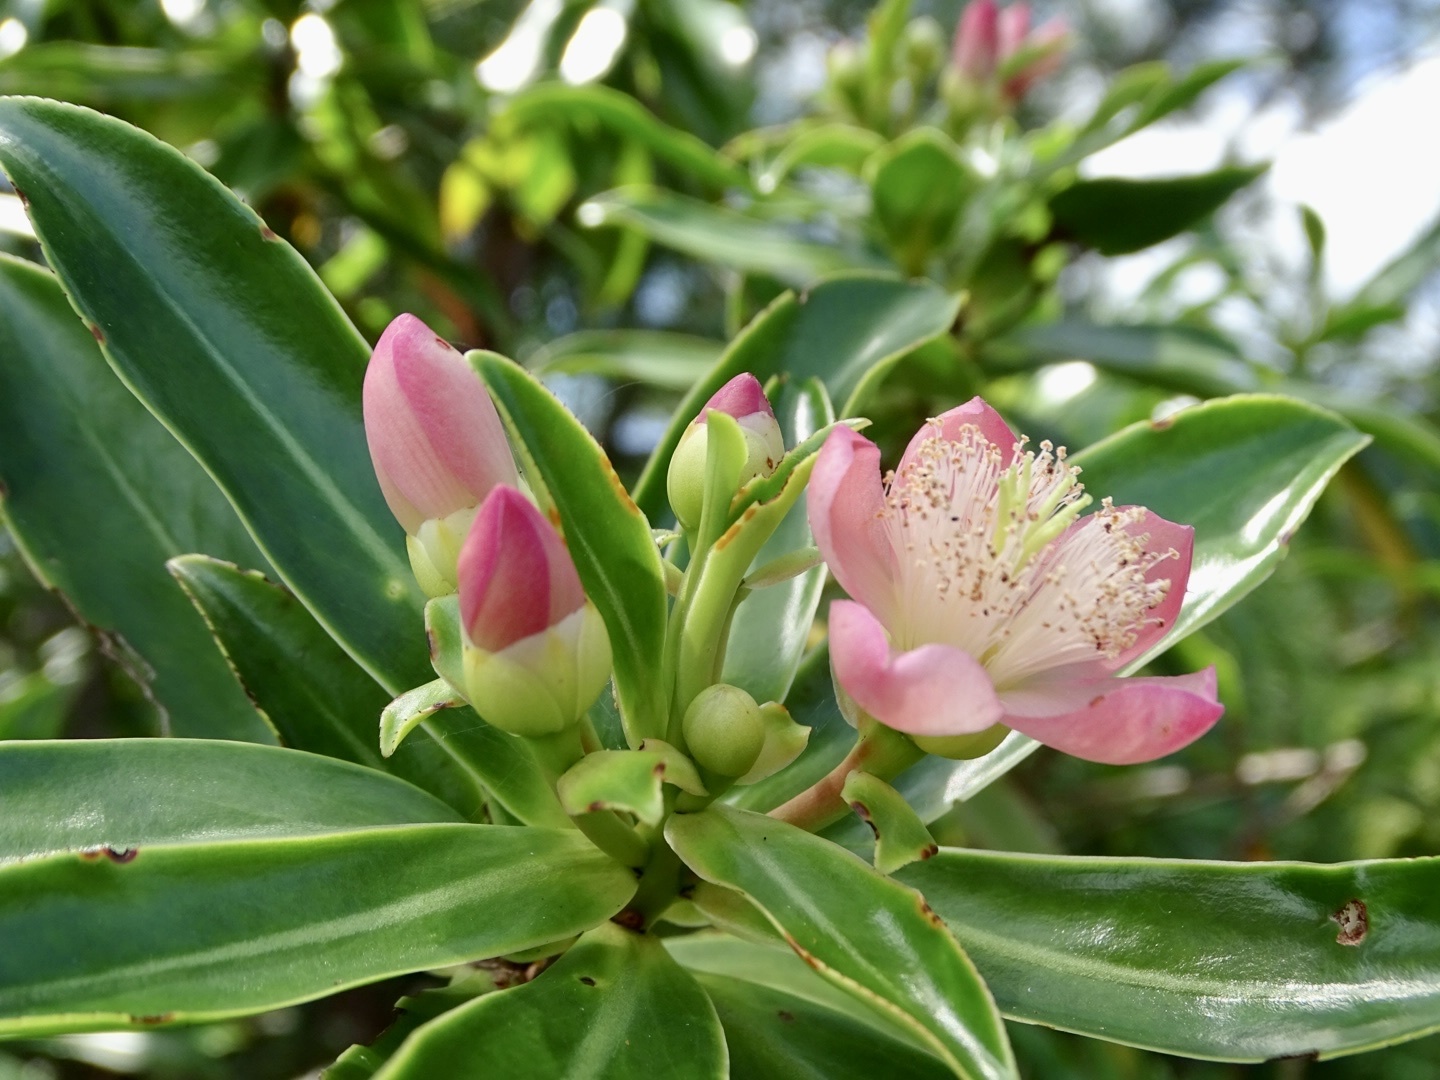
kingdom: Plantae
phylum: Tracheophyta
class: Magnoliopsida
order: Malpighiales
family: Bonnetiaceae
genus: Ploiarium
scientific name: Ploiarium elegans
